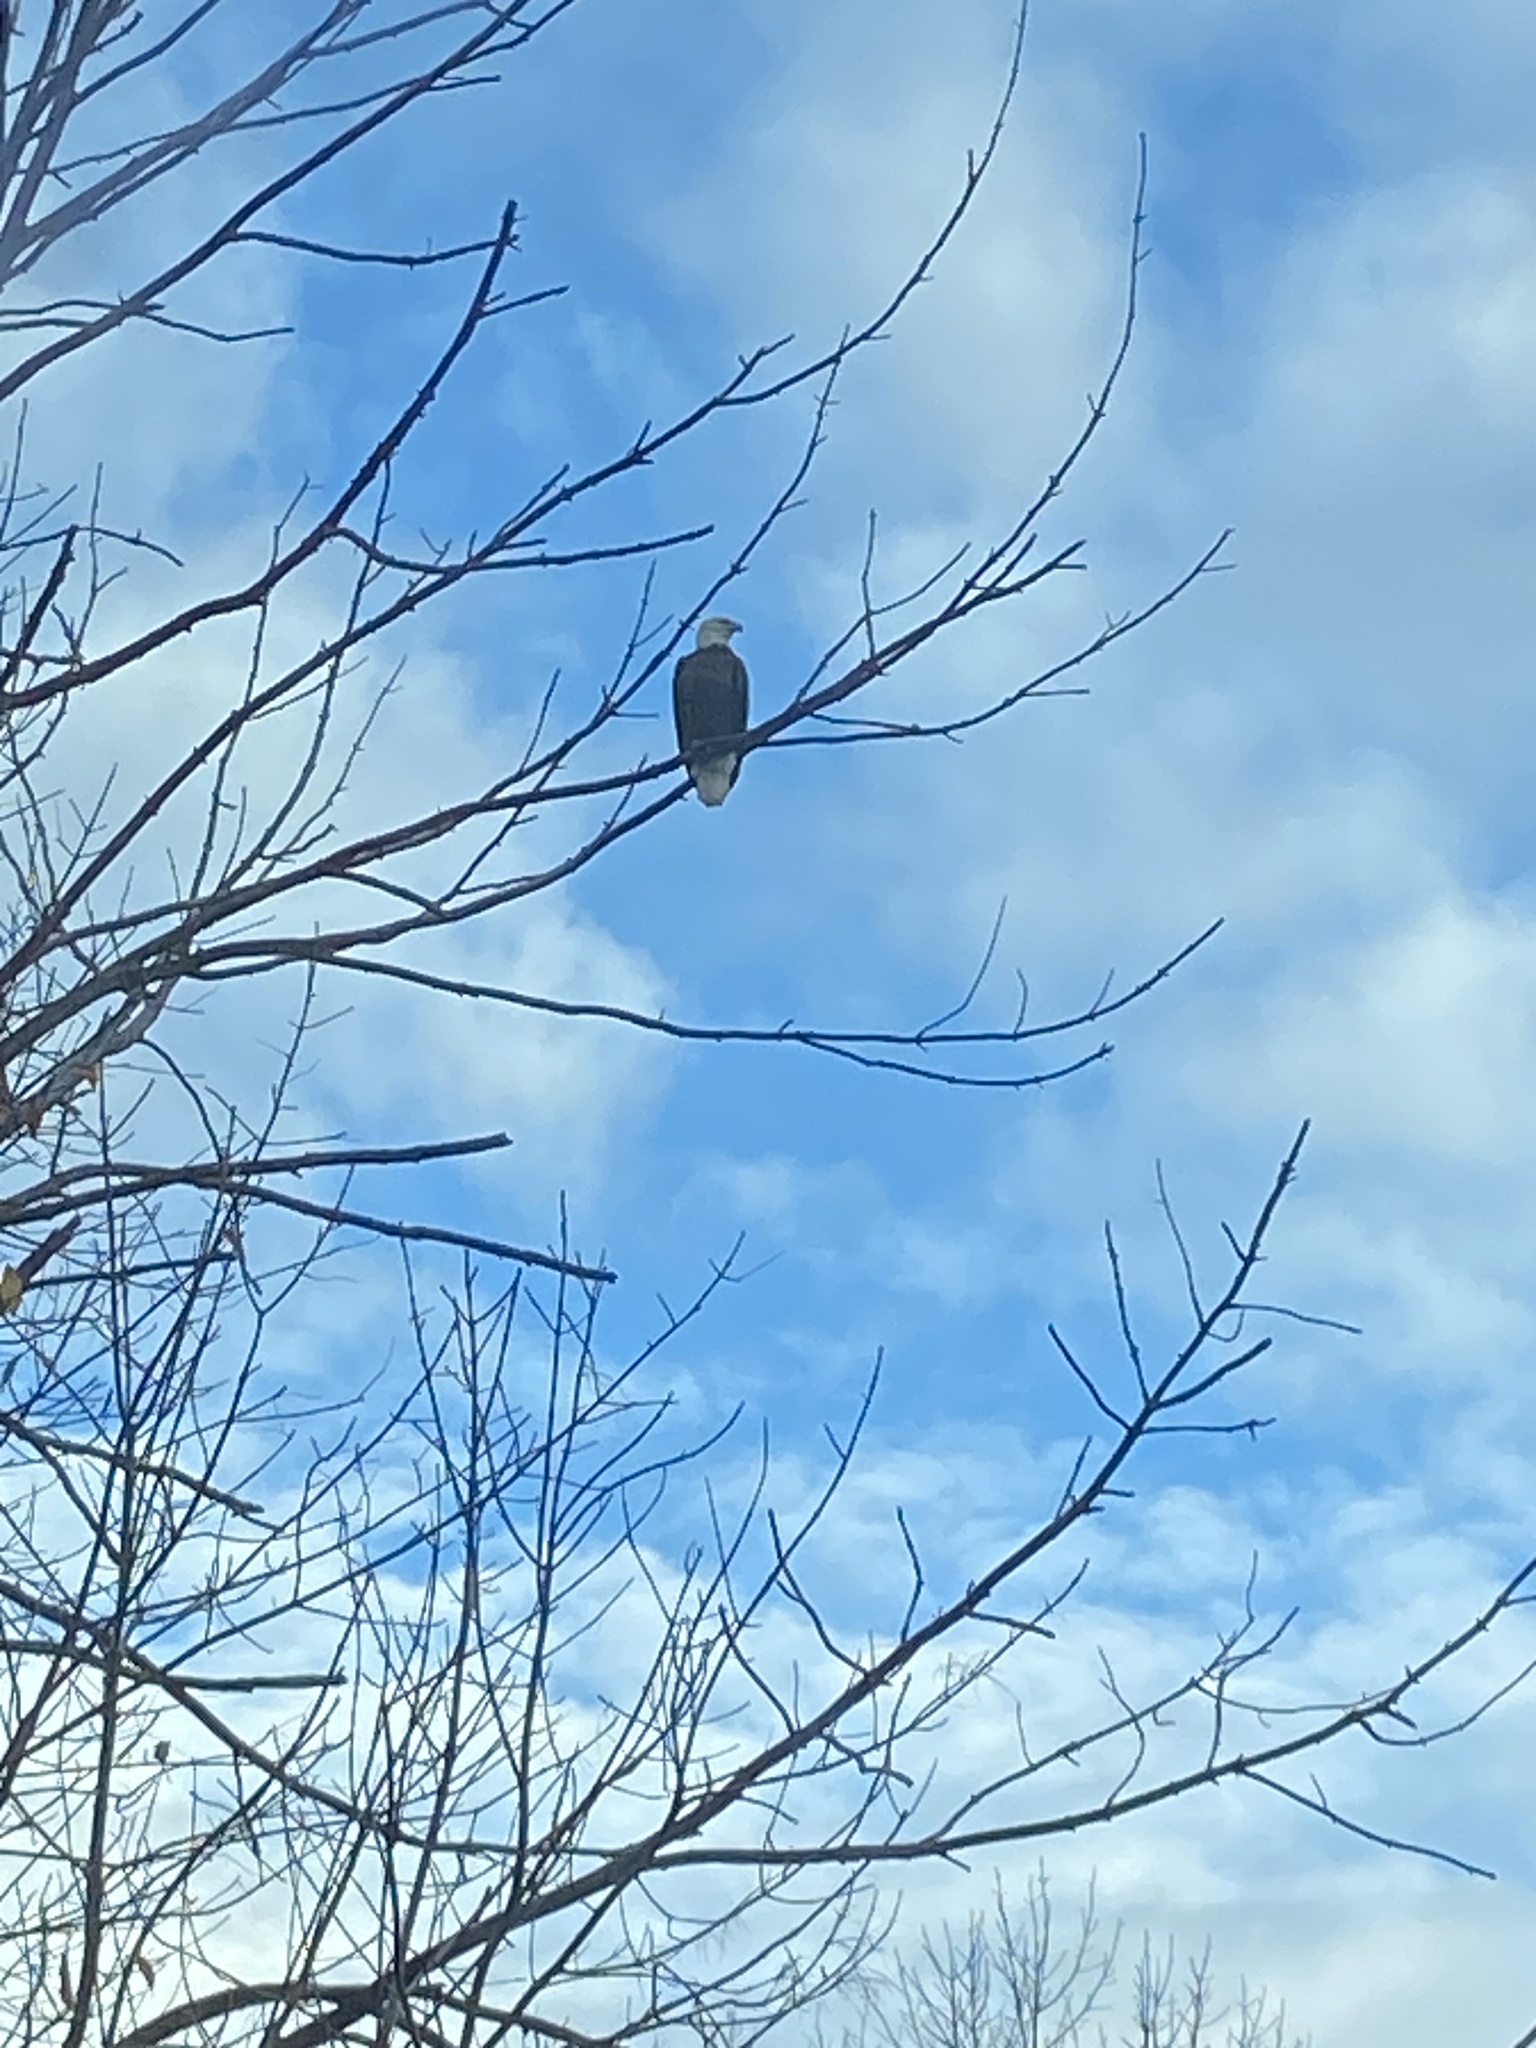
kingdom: Animalia
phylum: Chordata
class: Aves
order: Accipitriformes
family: Accipitridae
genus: Haliaeetus
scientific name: Haliaeetus leucocephalus
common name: Bald eagle
